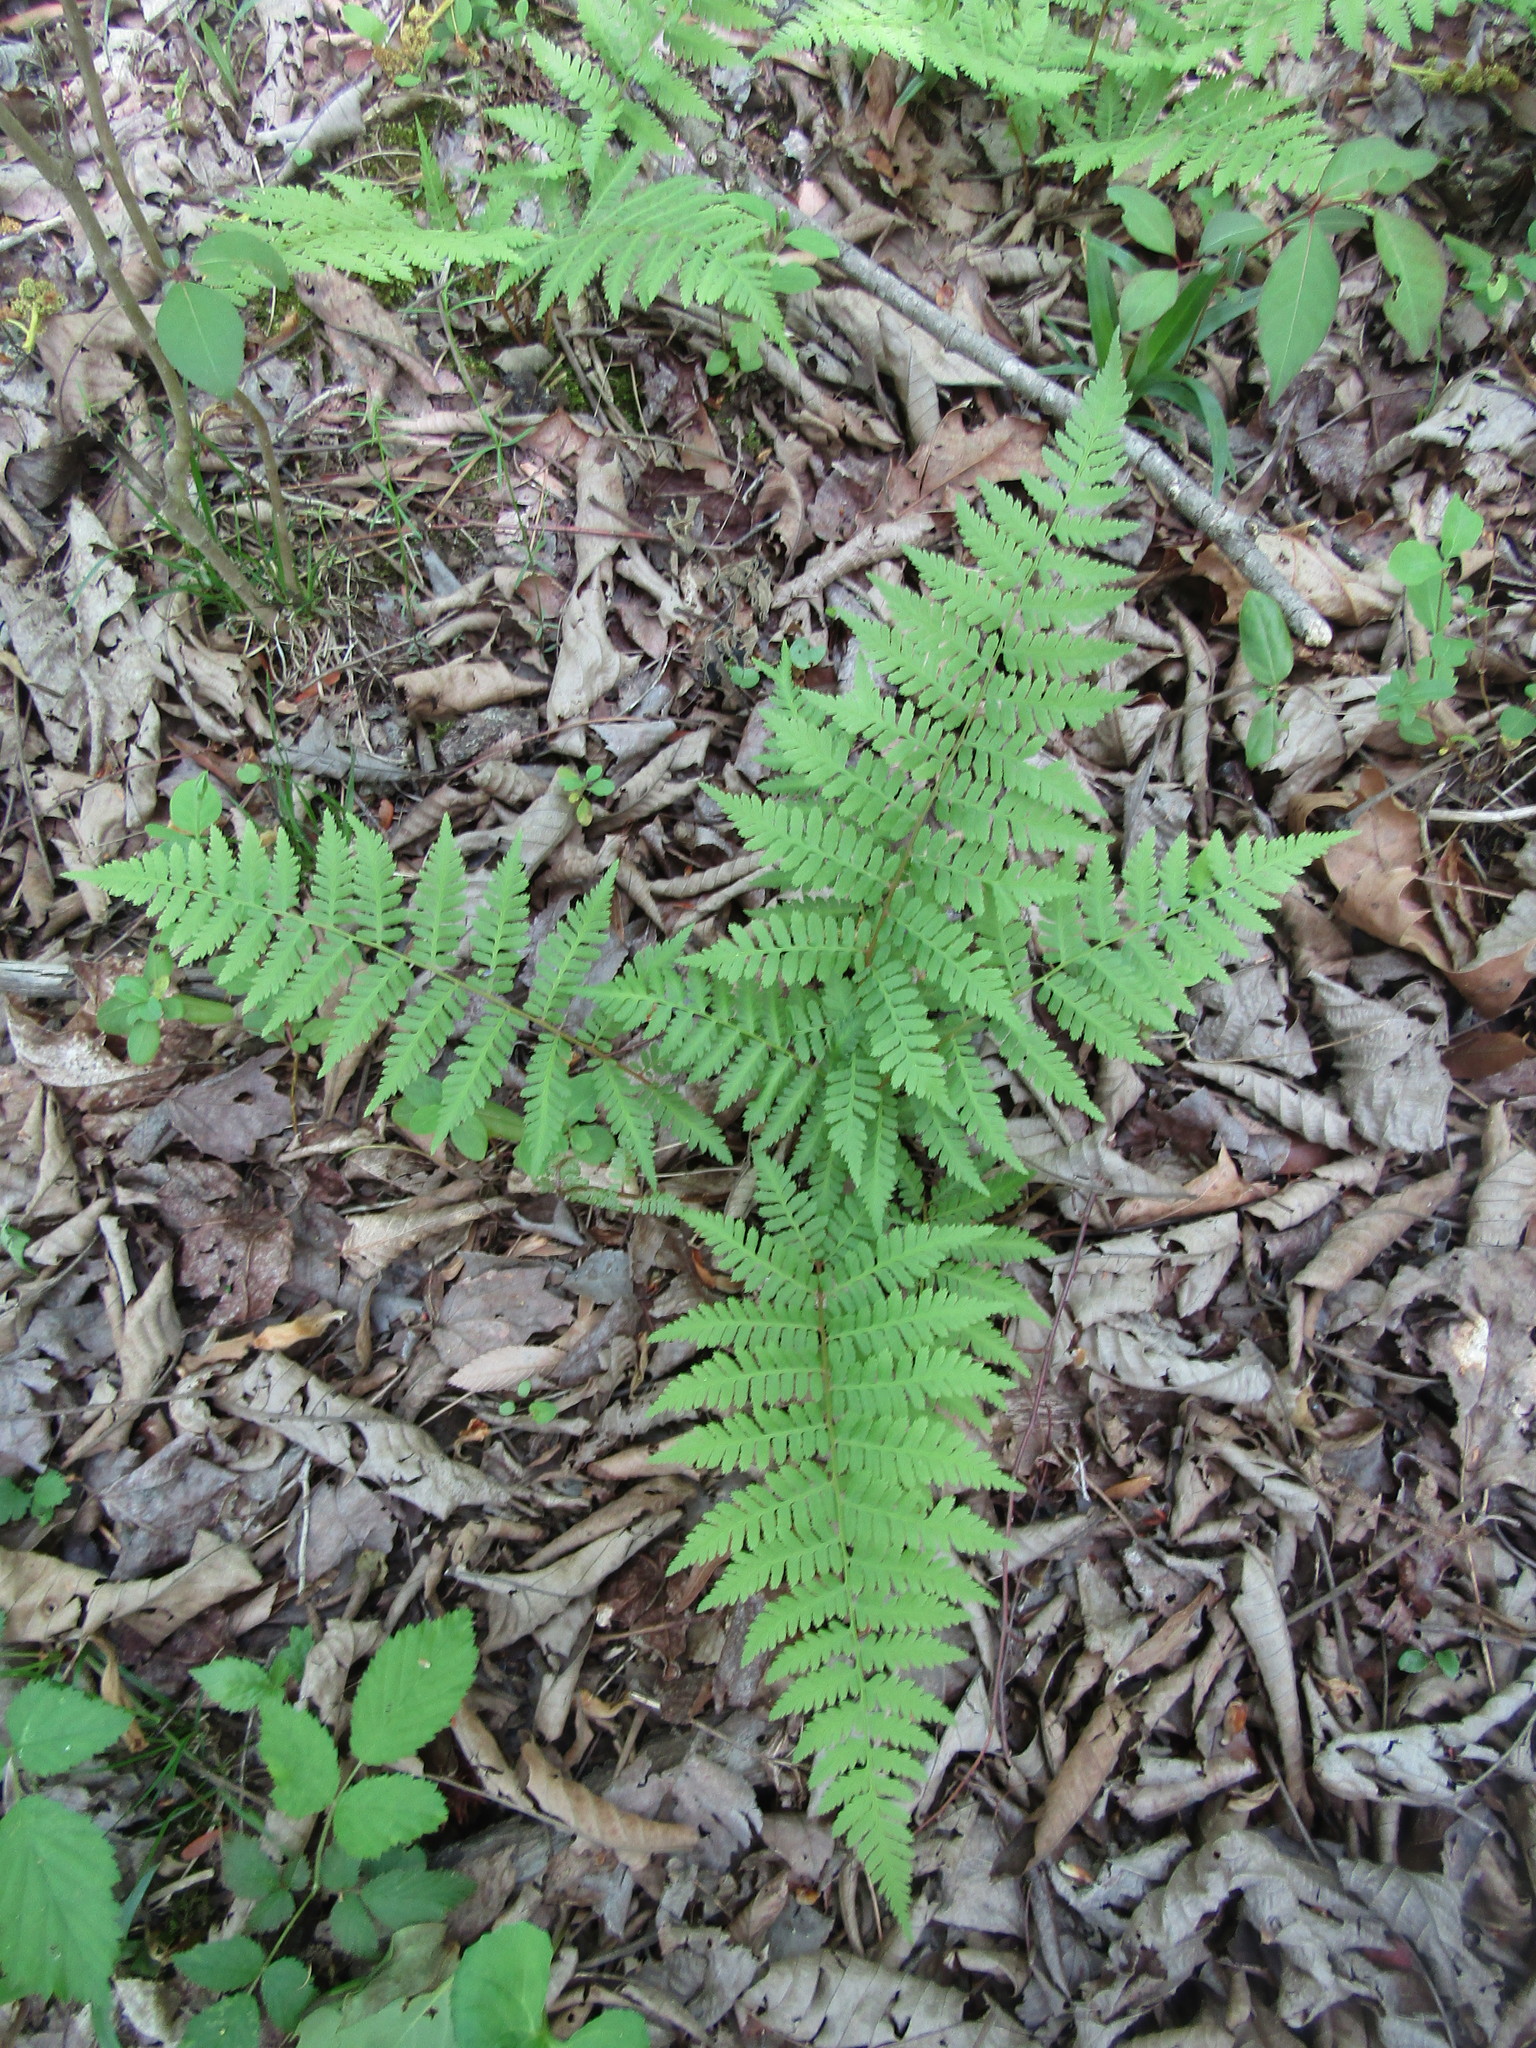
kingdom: Plantae
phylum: Tracheophyta
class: Polypodiopsida
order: Polypodiales
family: Athyriaceae
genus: Athyrium
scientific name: Athyrium asplenioides
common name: Southern lady fern
